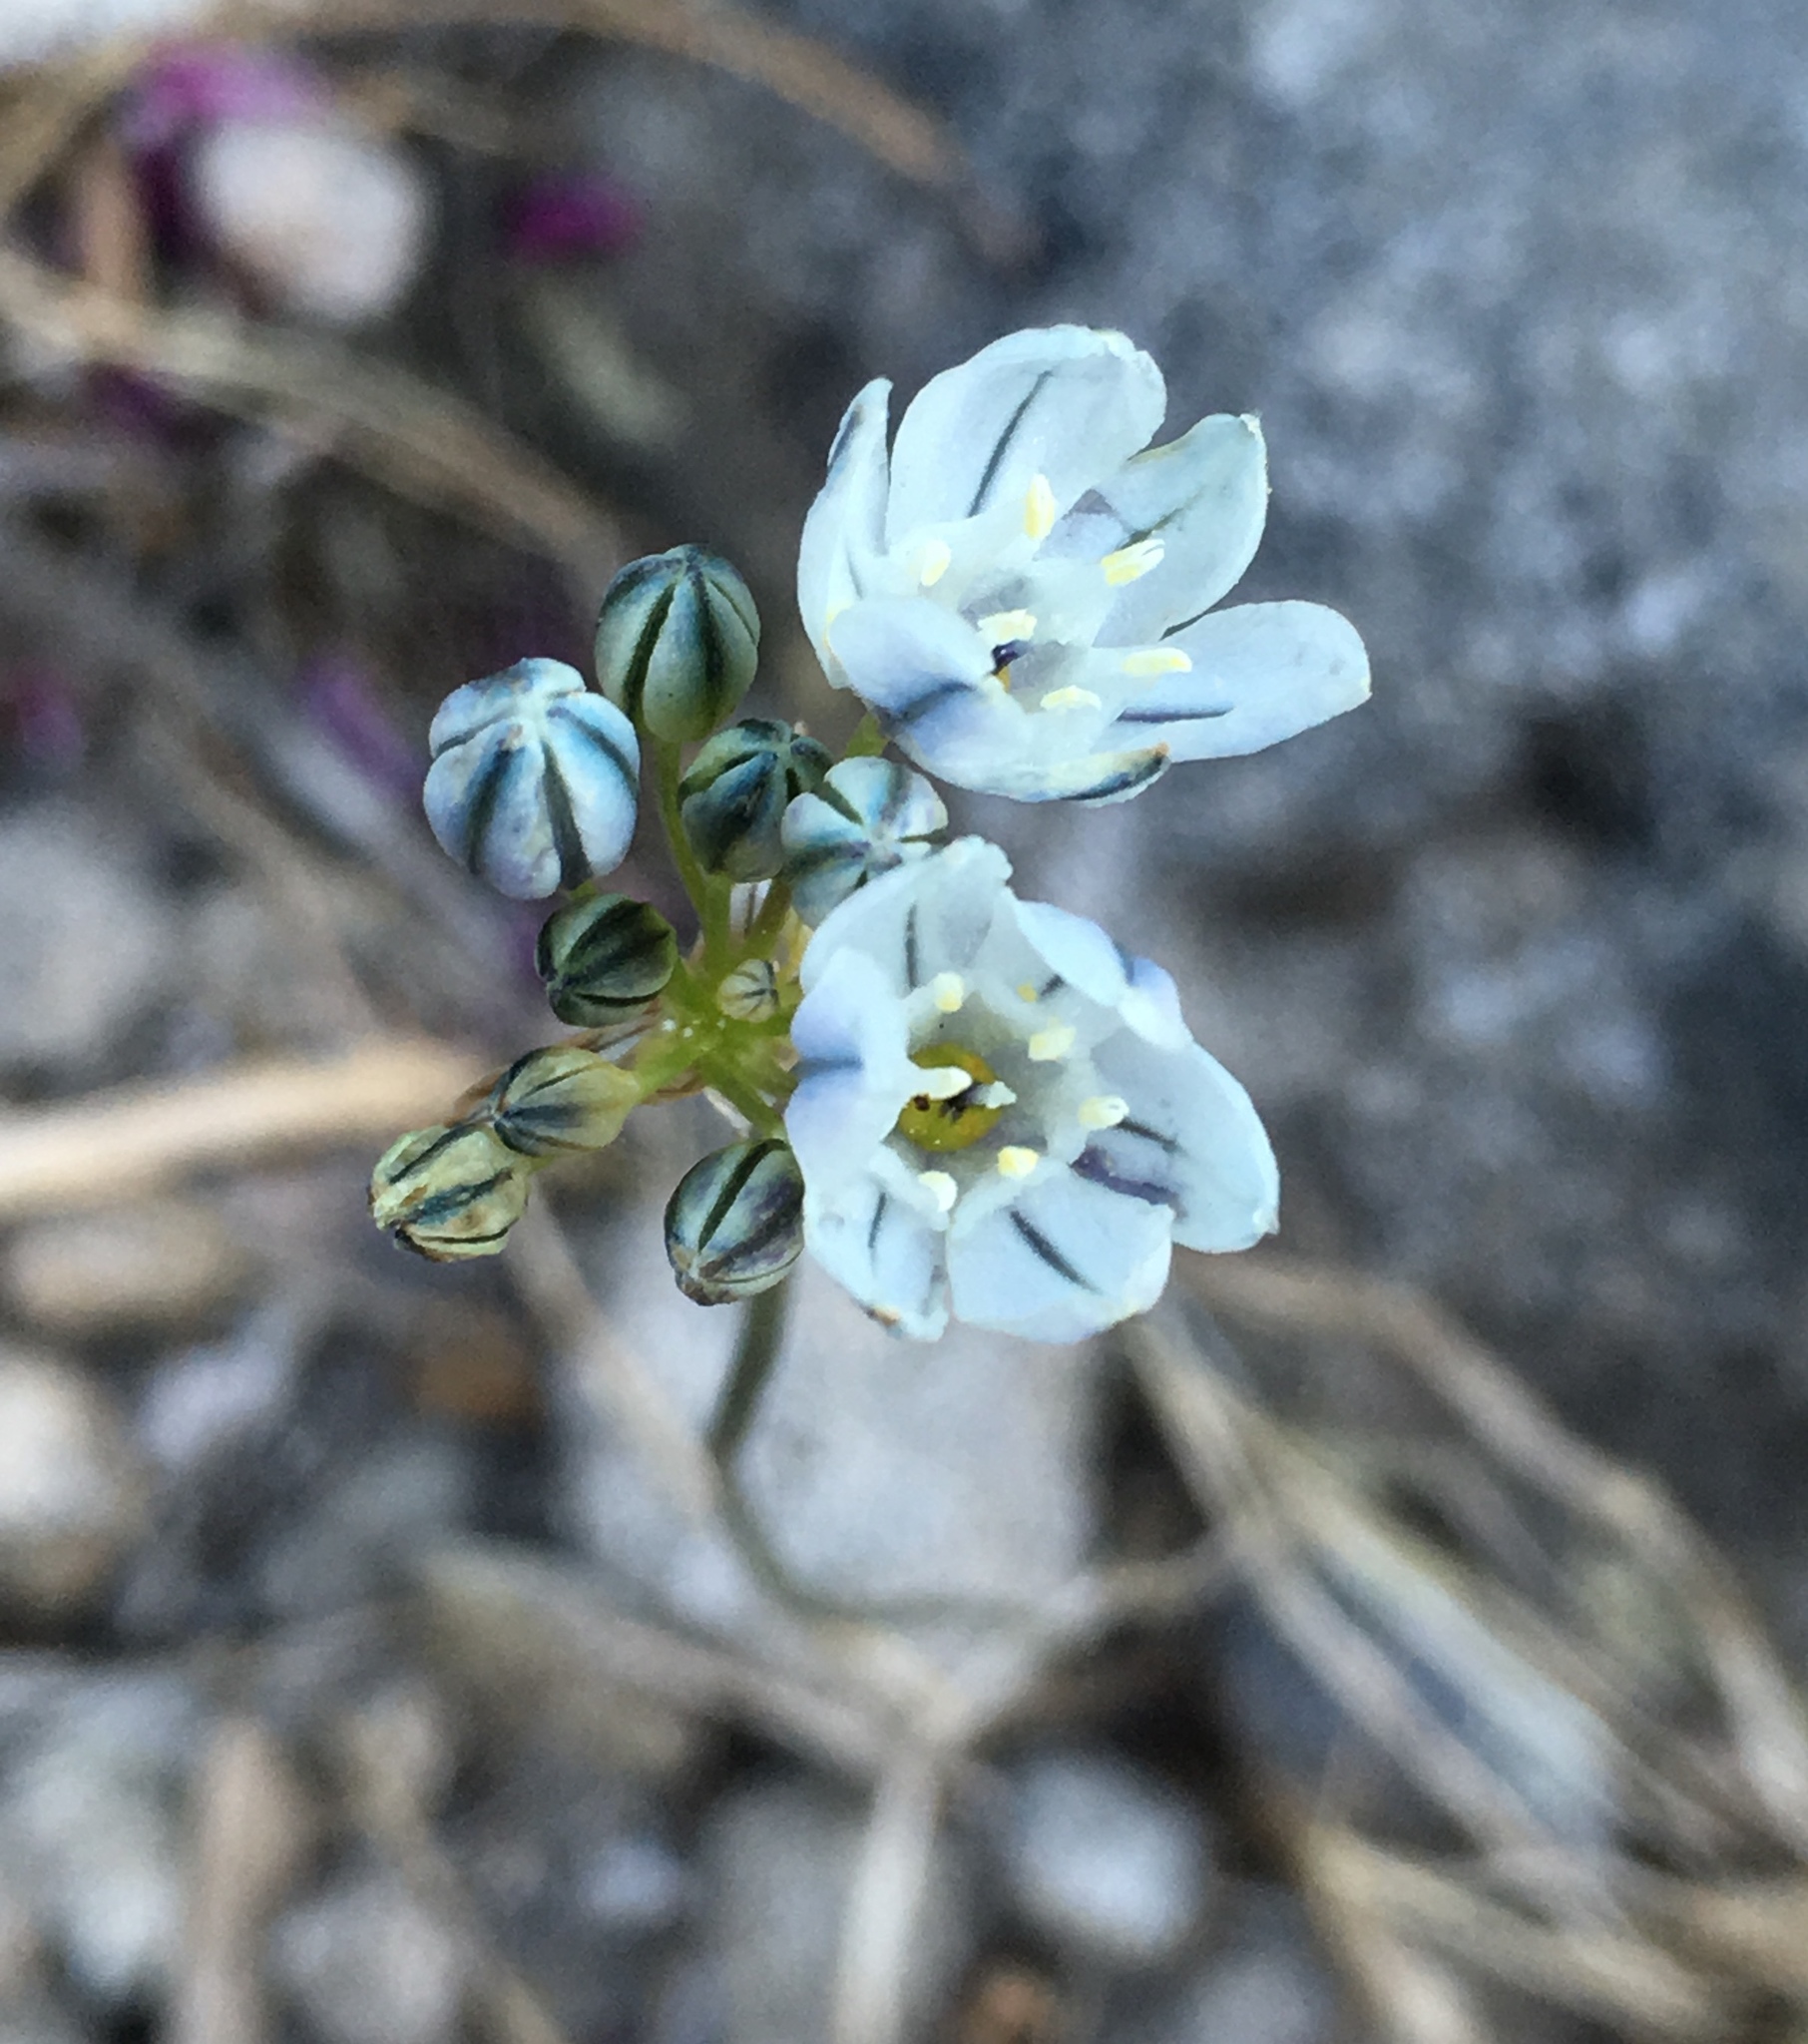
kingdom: Plantae
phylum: Tracheophyta
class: Liliopsida
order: Asparagales
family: Asparagaceae
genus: Triteleia
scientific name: Triteleia hyacinthina
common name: White brodiaea
